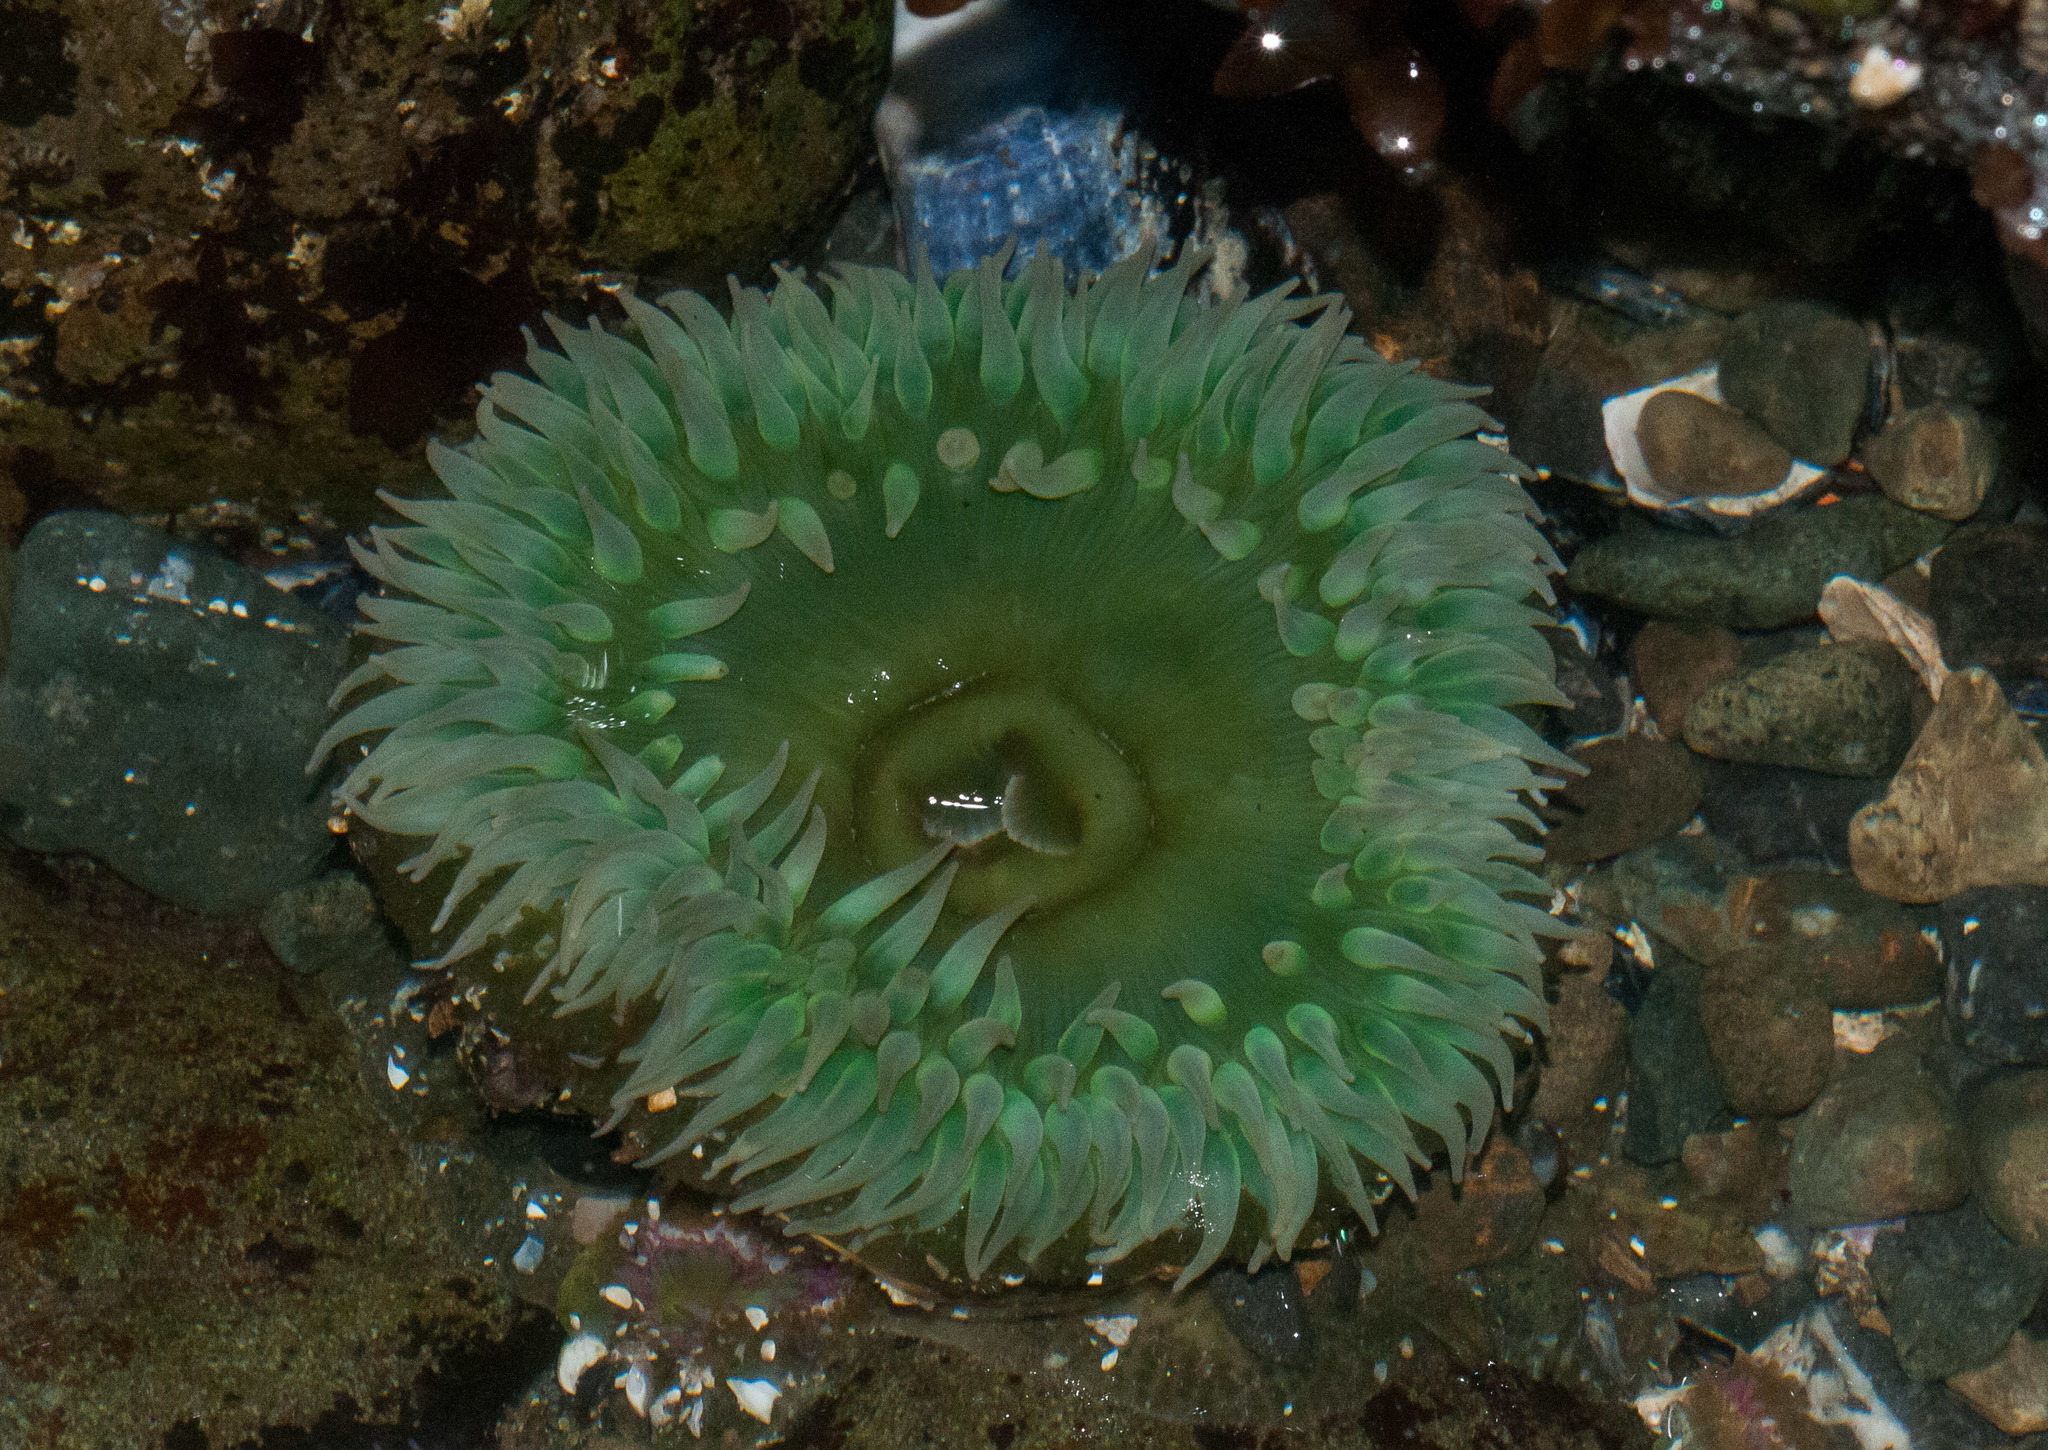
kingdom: Animalia
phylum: Cnidaria
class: Anthozoa
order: Actiniaria
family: Actiniidae
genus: Anthopleura
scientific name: Anthopleura xanthogrammica
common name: Giant green anemone
